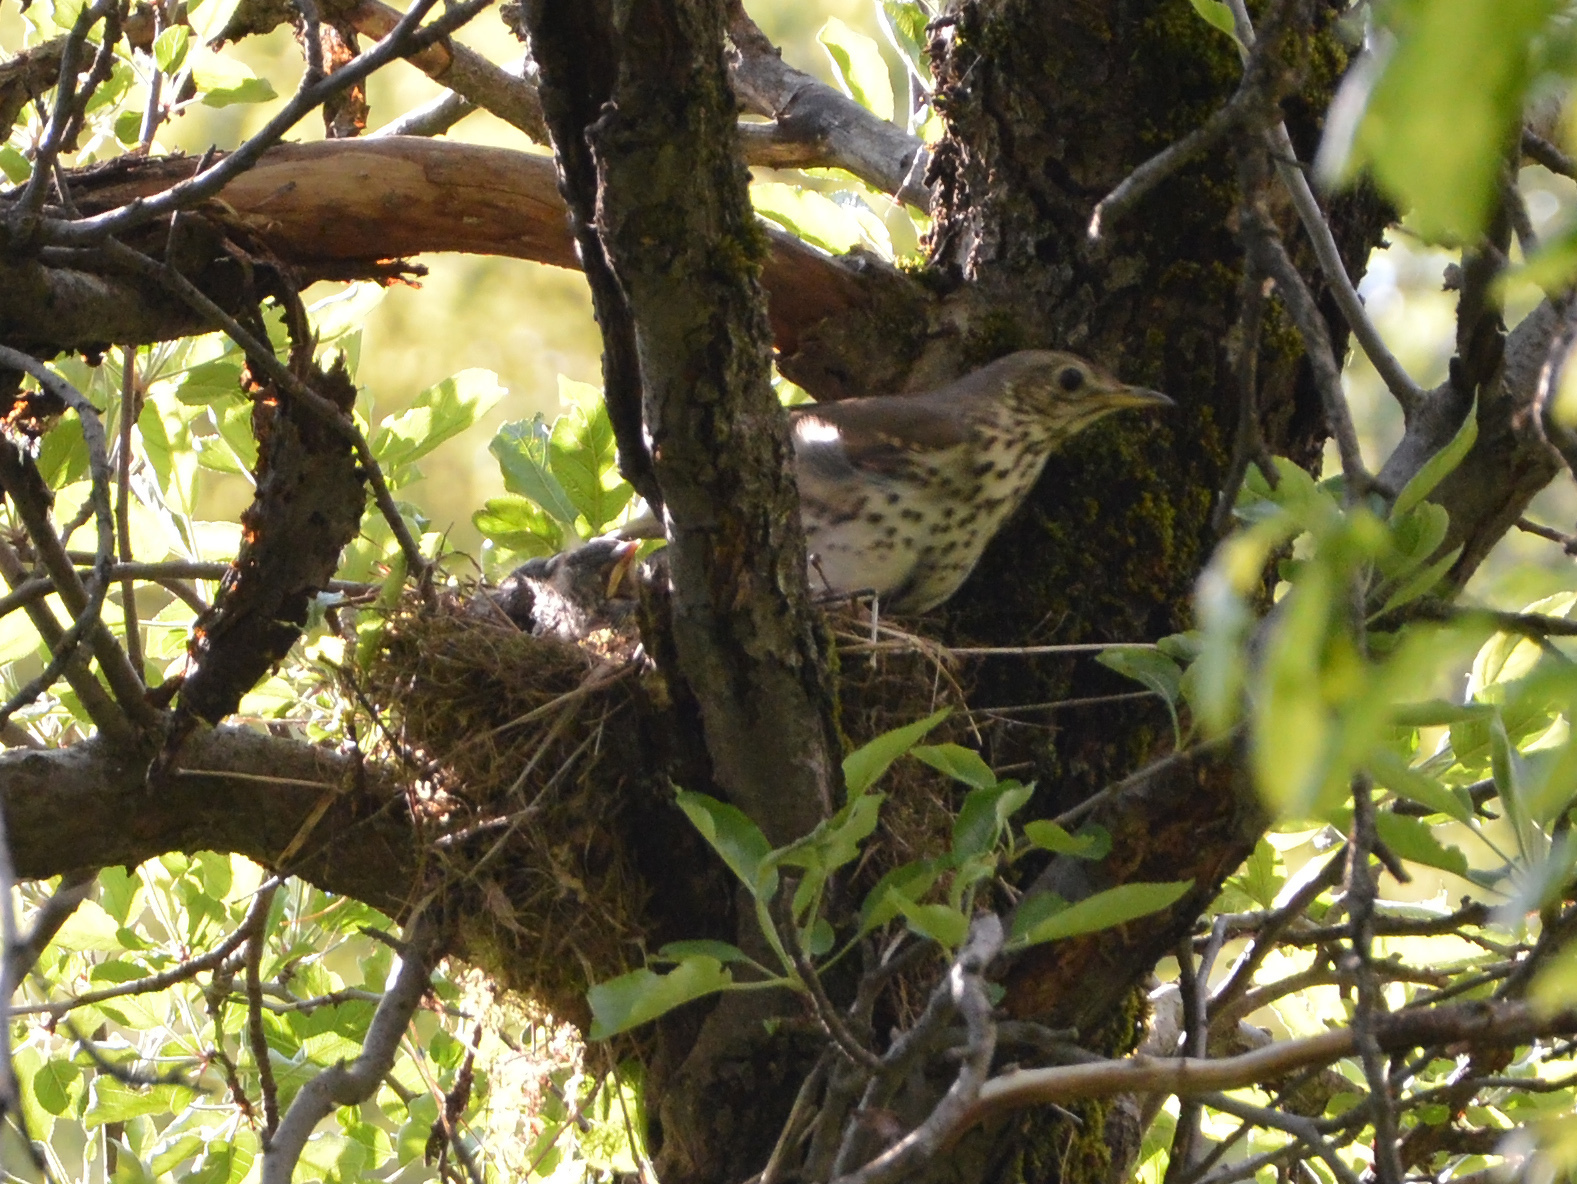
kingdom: Animalia
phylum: Chordata
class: Aves
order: Passeriformes
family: Turdidae
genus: Turdus
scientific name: Turdus philomelos
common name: Song thrush
